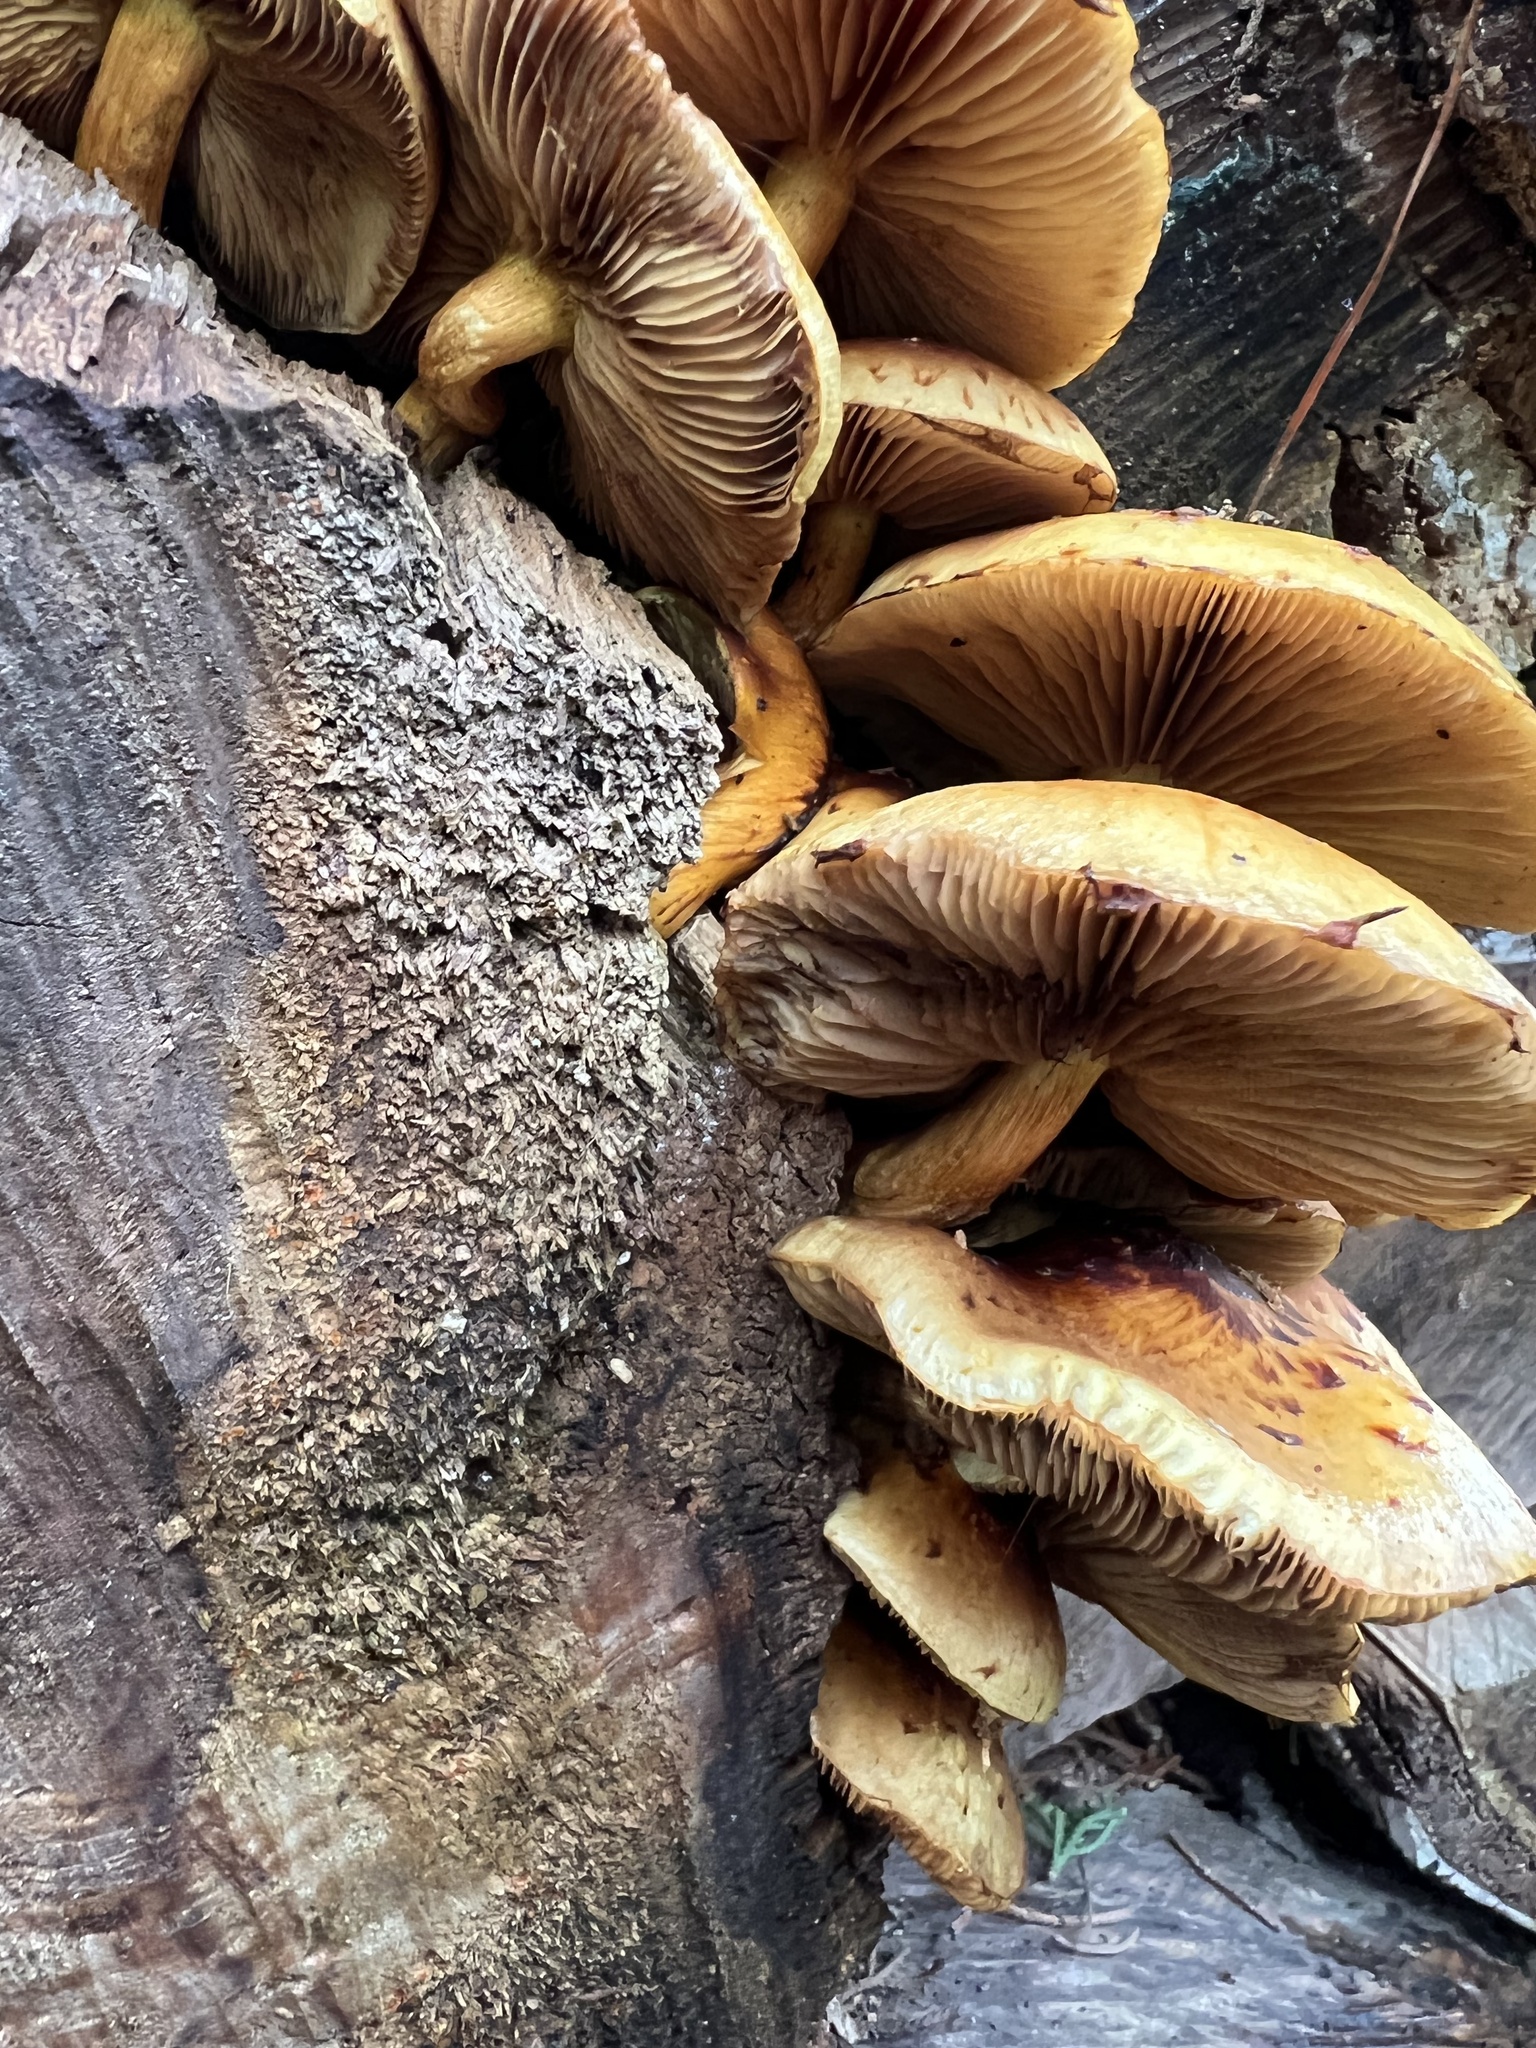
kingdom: Fungi
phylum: Basidiomycota
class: Agaricomycetes
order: Agaricales
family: Strophariaceae
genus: Pholiota
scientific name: Pholiota glutinosa
